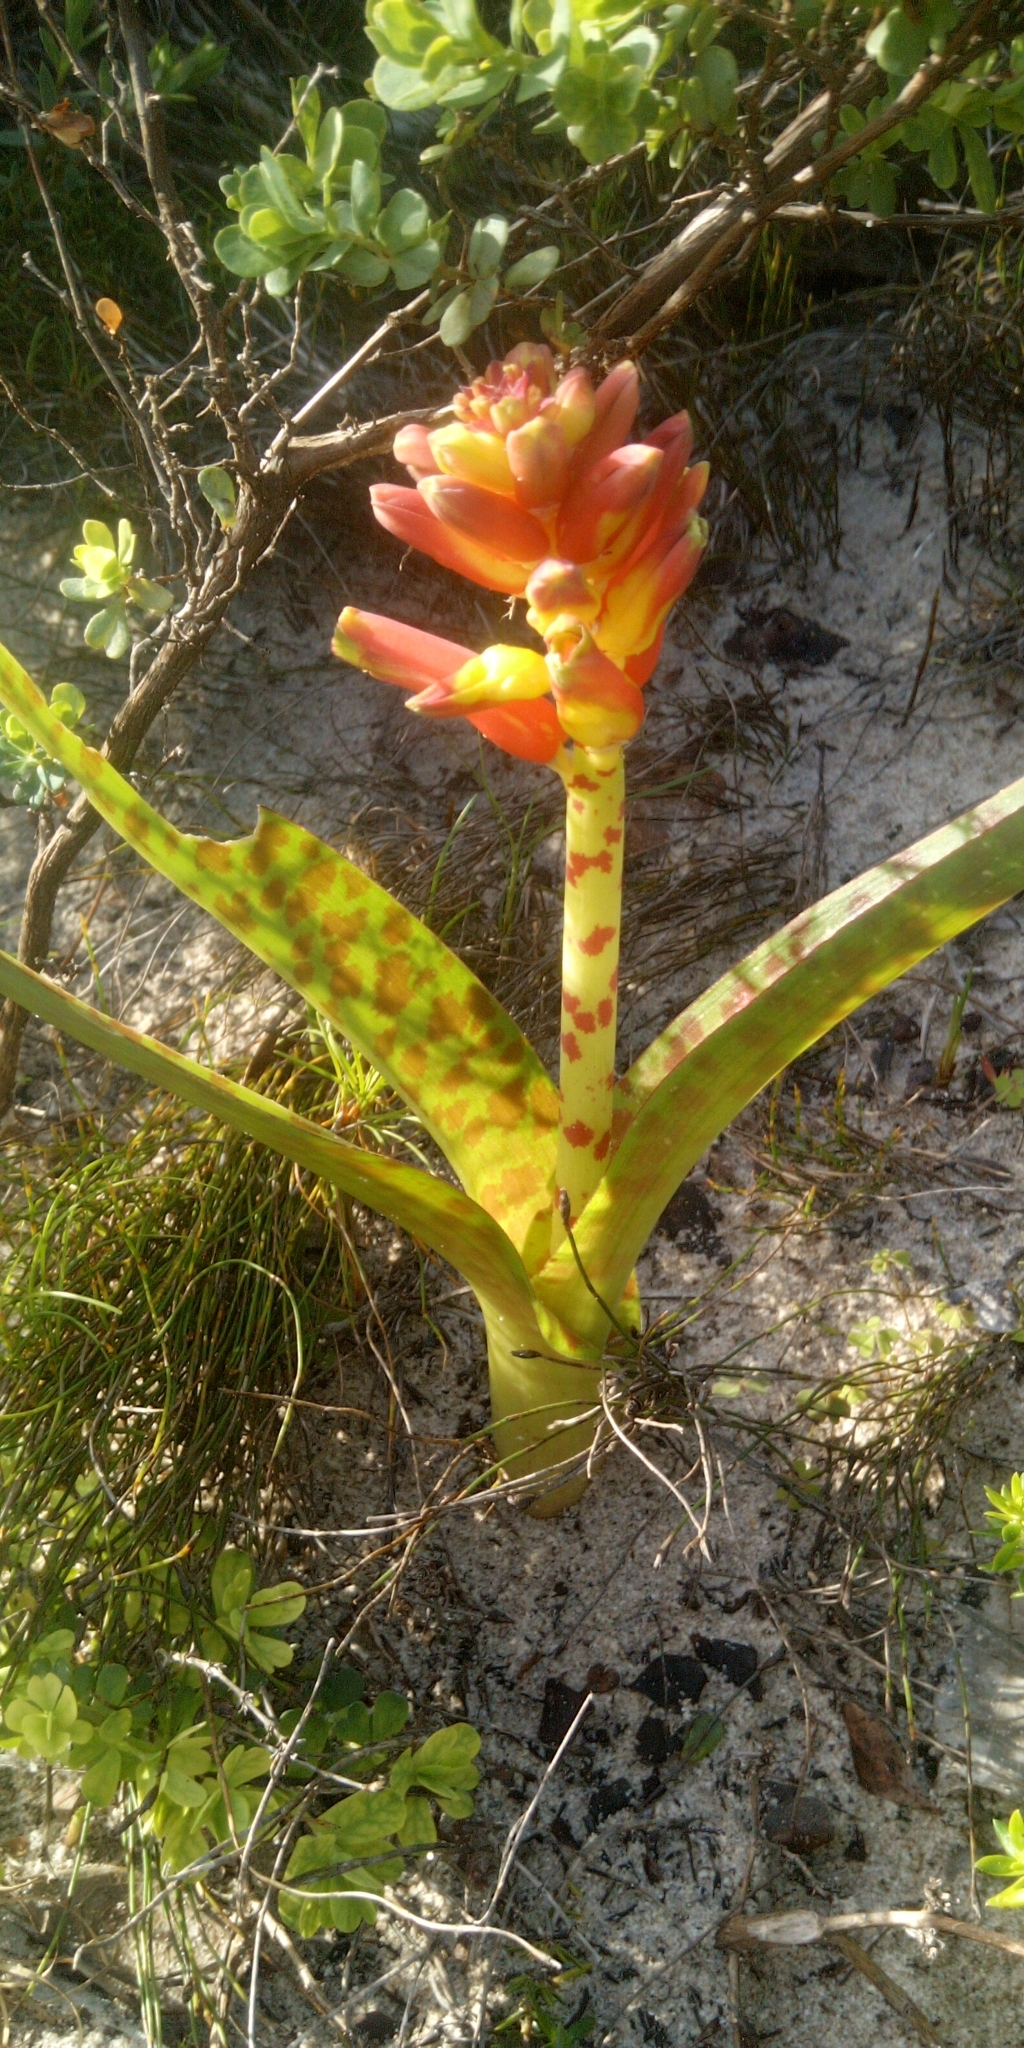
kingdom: Plantae
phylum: Tracheophyta
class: Liliopsida
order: Asparagales
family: Asparagaceae
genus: Lachenalia
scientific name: Lachenalia bulbifera
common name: Red lachenalia
